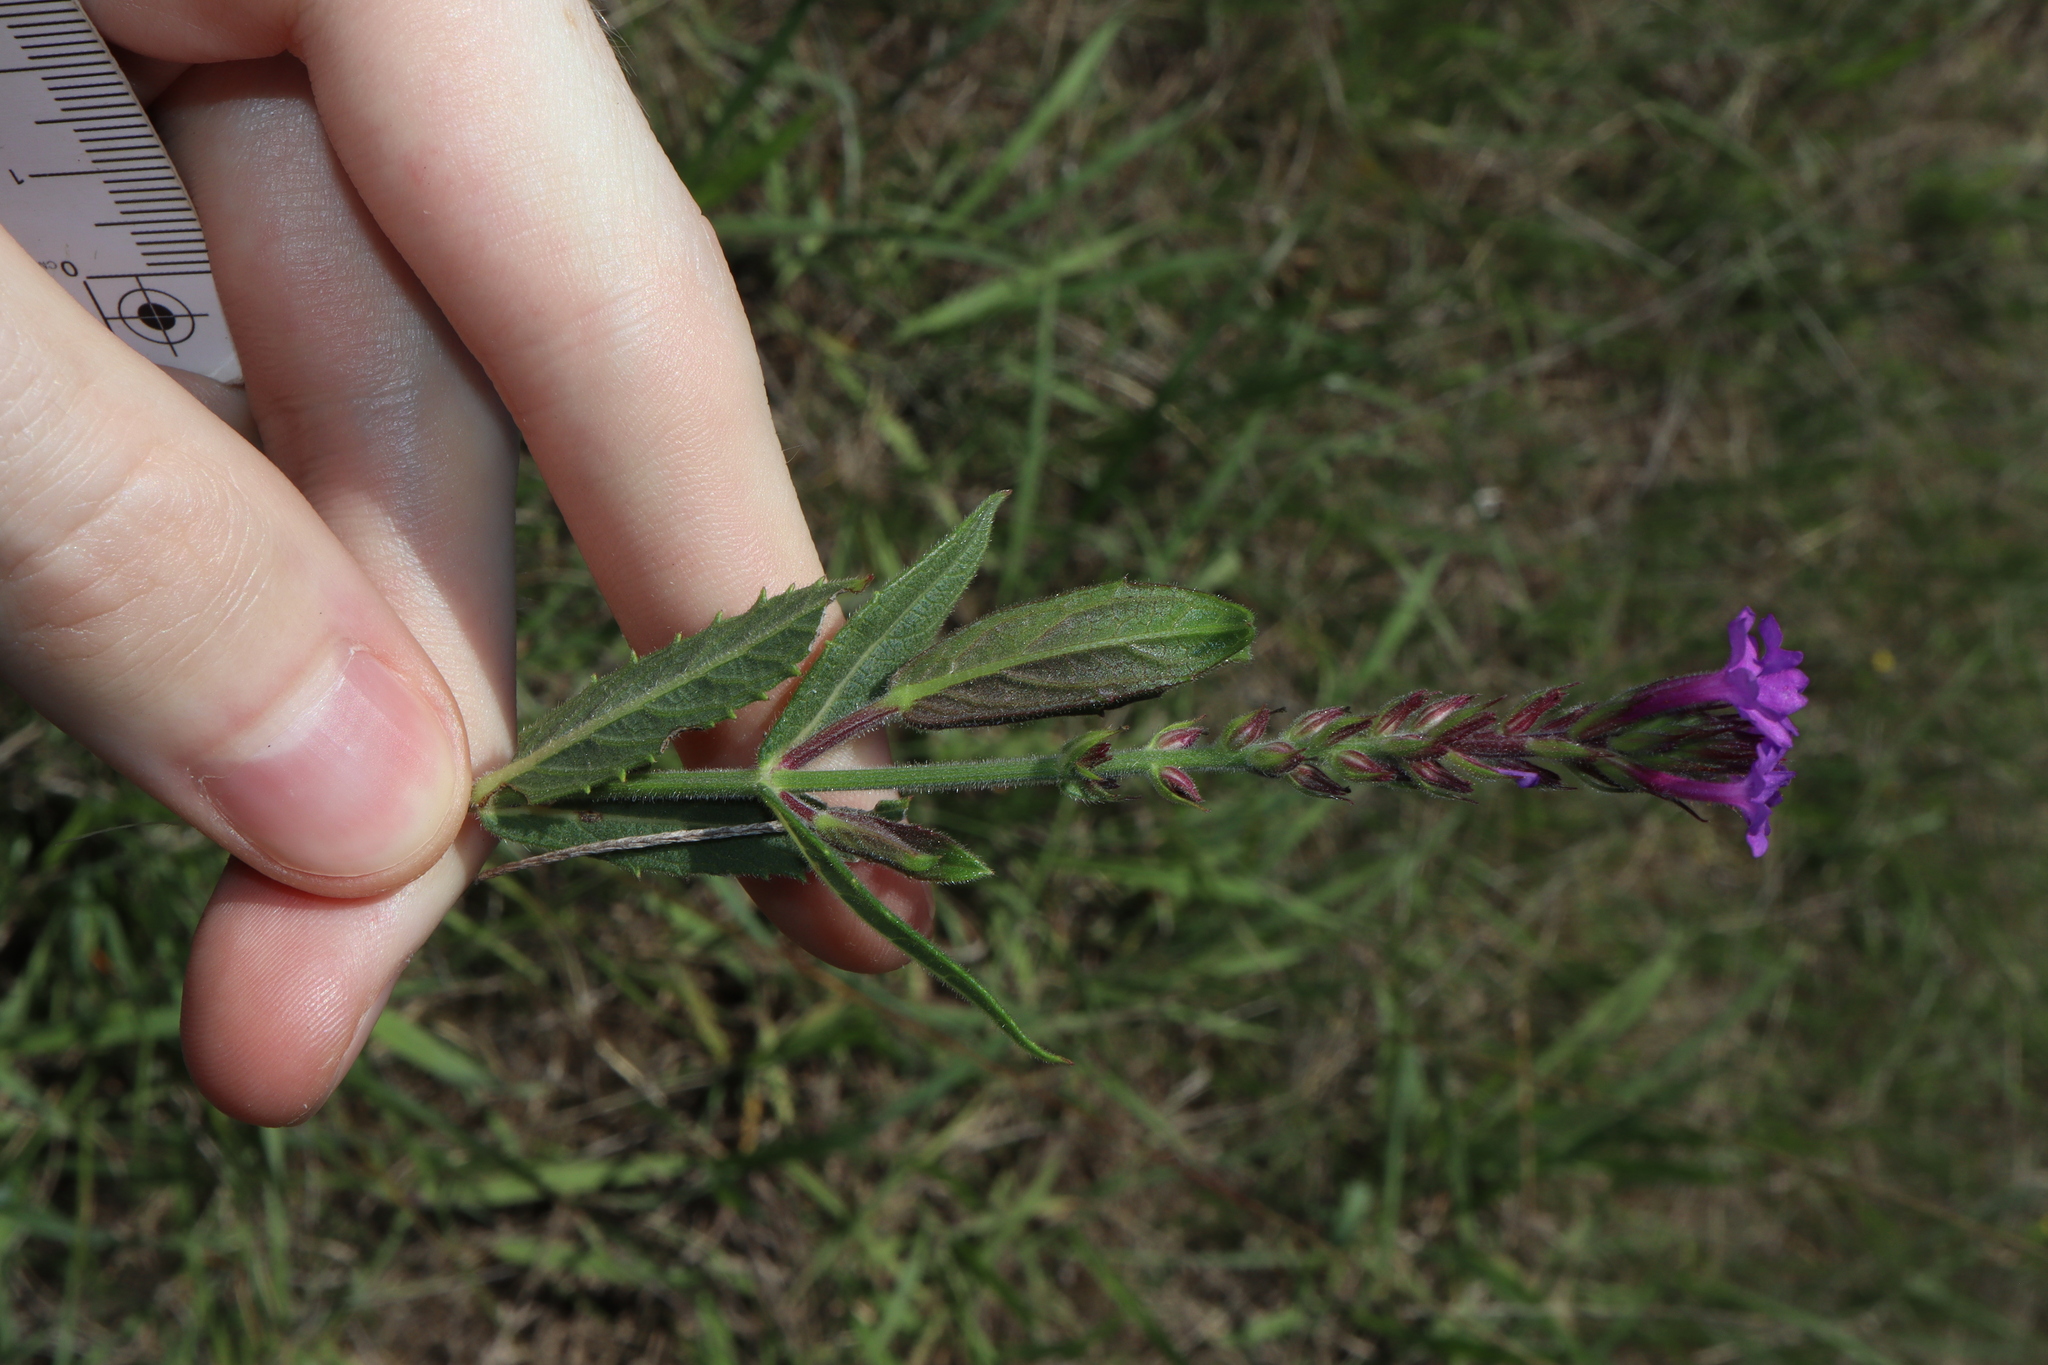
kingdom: Plantae
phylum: Tracheophyta
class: Magnoliopsida
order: Lamiales
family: Verbenaceae
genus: Verbena
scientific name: Verbena rigida
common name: Slender vervain
